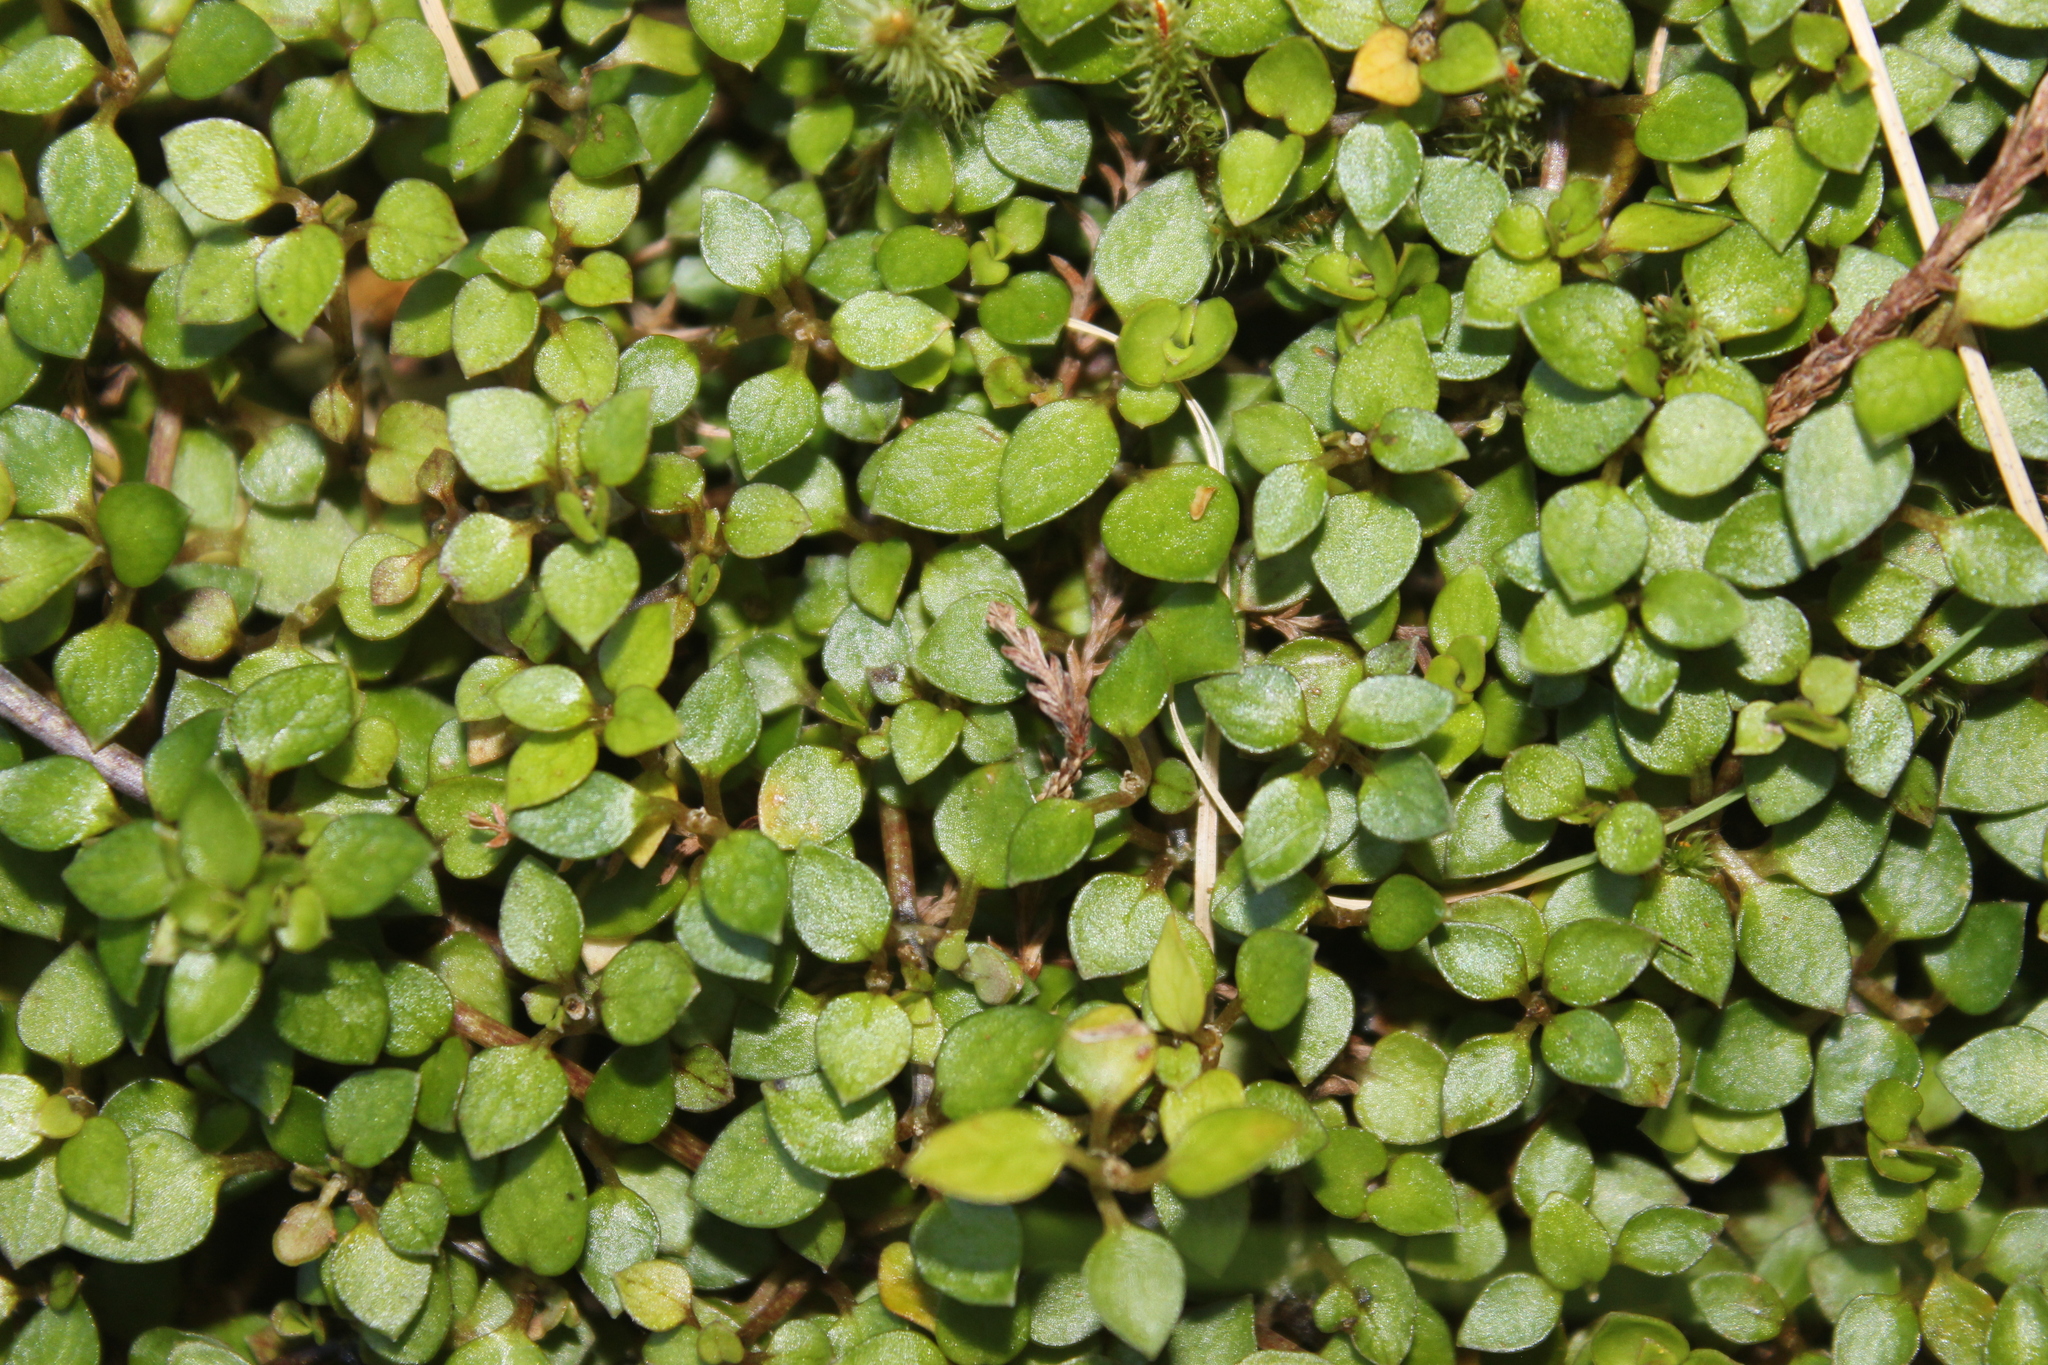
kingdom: Plantae
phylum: Tracheophyta
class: Magnoliopsida
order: Gentianales
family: Rubiaceae
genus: Nertera
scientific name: Nertera granadensis
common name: Beadplant
